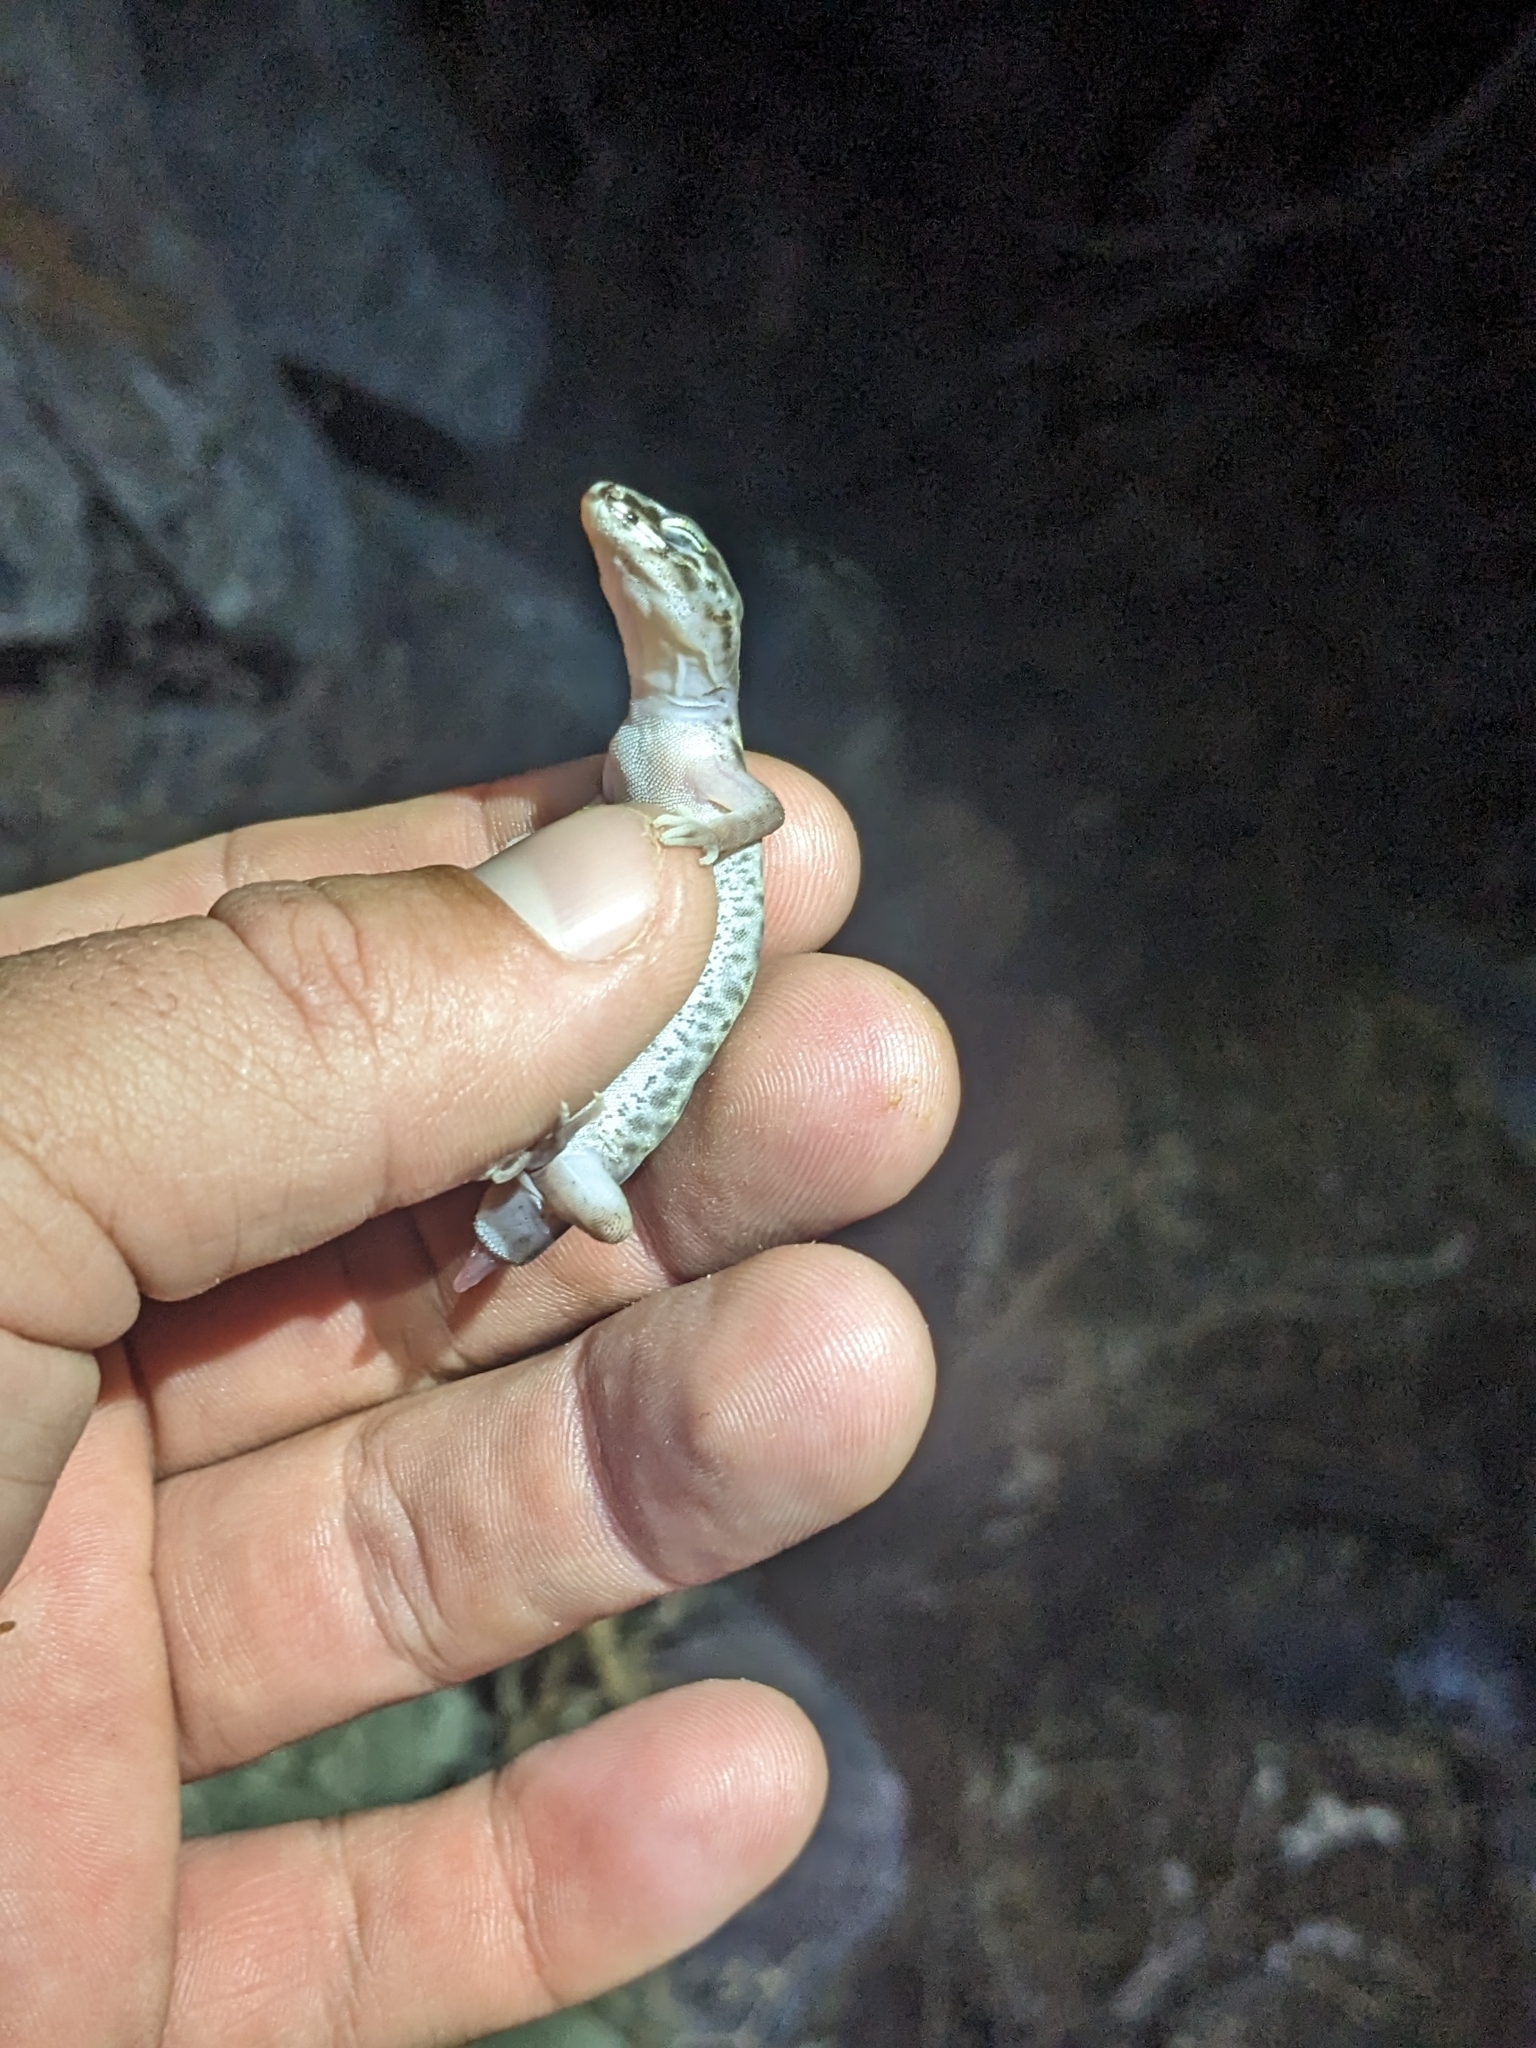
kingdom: Animalia
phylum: Chordata
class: Squamata
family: Eublepharidae
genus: Coleonyx
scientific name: Coleonyx variegatus
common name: Western banded gecko
